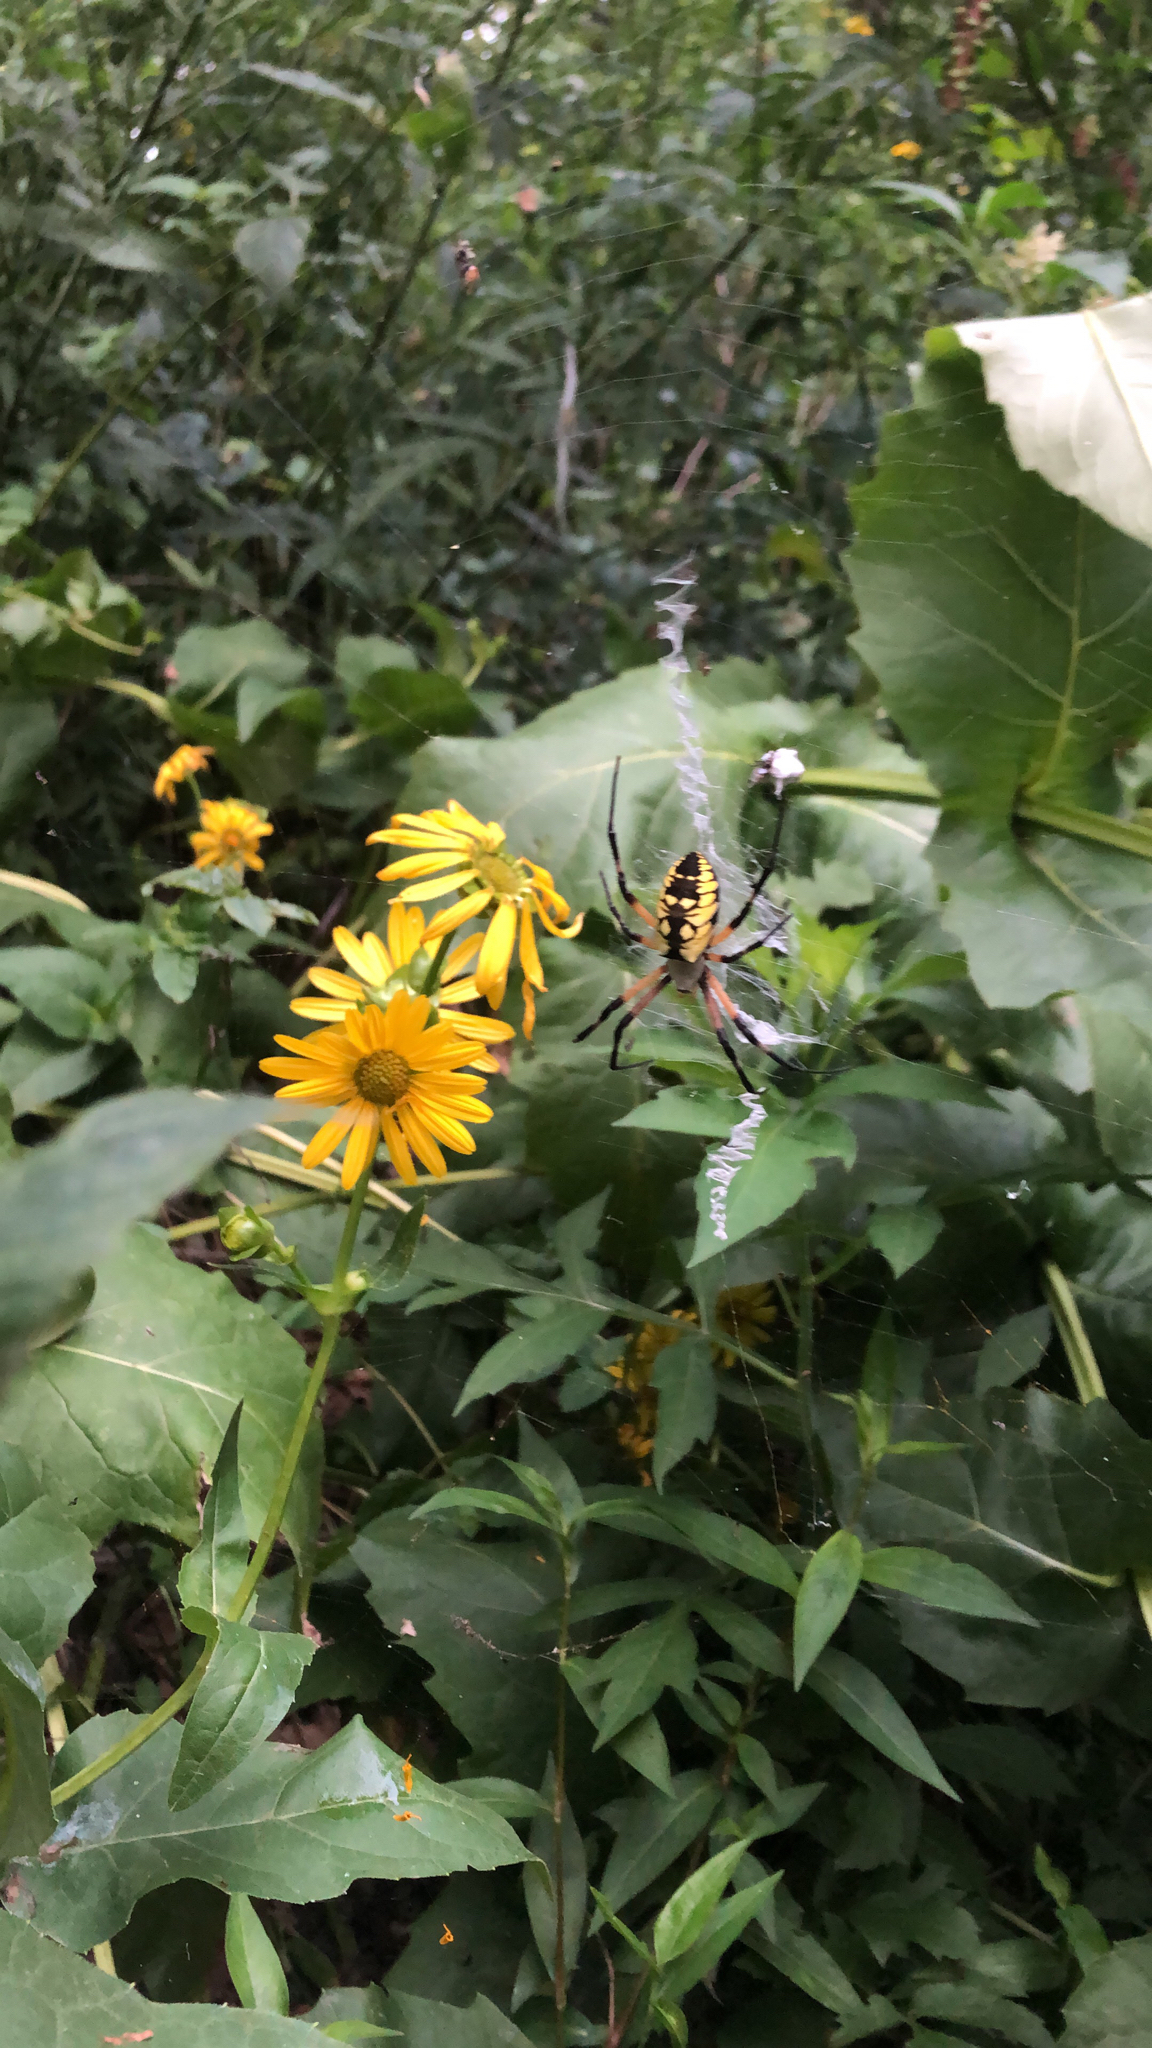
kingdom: Animalia
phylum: Arthropoda
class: Arachnida
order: Araneae
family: Araneidae
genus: Argiope
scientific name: Argiope aurantia
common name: Orb weavers
